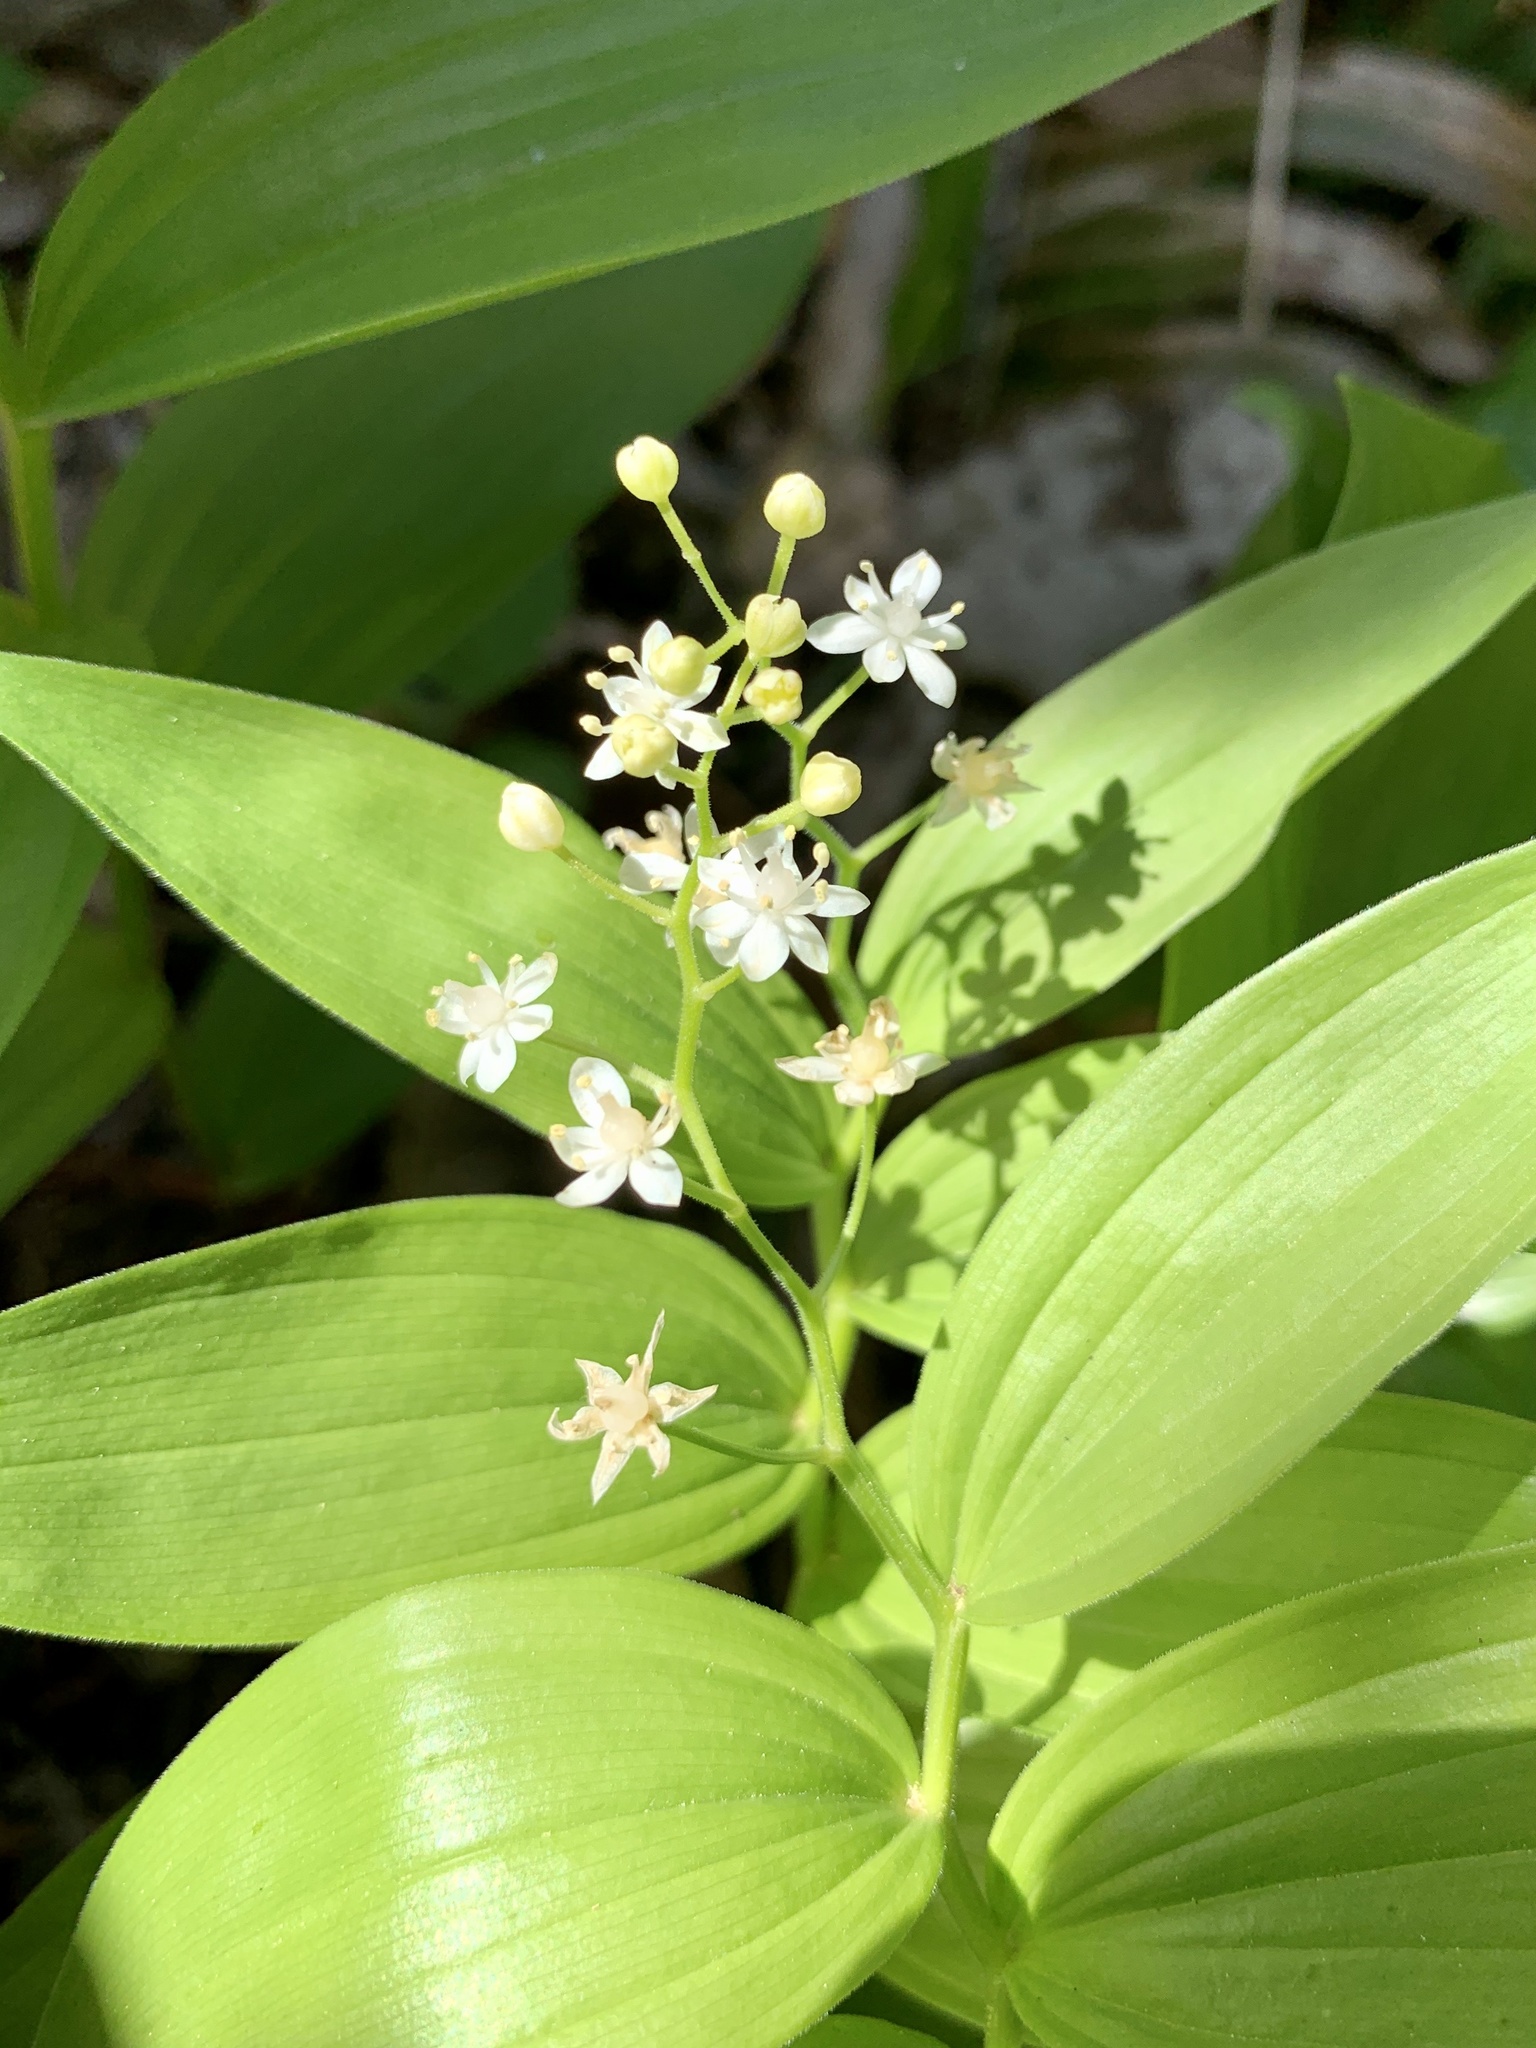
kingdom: Plantae
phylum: Tracheophyta
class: Liliopsida
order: Asparagales
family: Asparagaceae
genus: Maianthemum
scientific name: Maianthemum stellatum
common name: Little false solomon's seal
